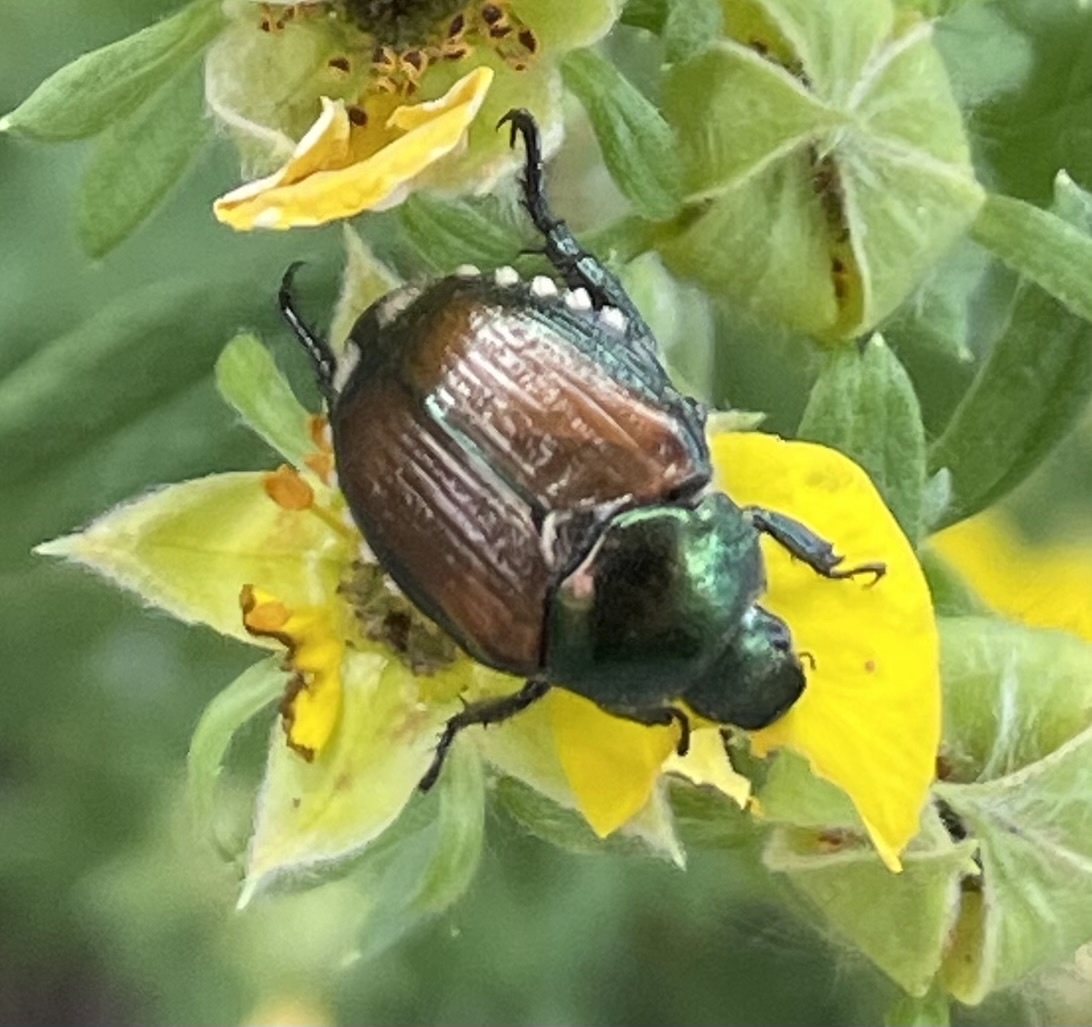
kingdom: Animalia
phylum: Arthropoda
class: Insecta
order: Coleoptera
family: Scarabaeidae
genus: Popillia
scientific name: Popillia japonica
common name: Japanese beetle
